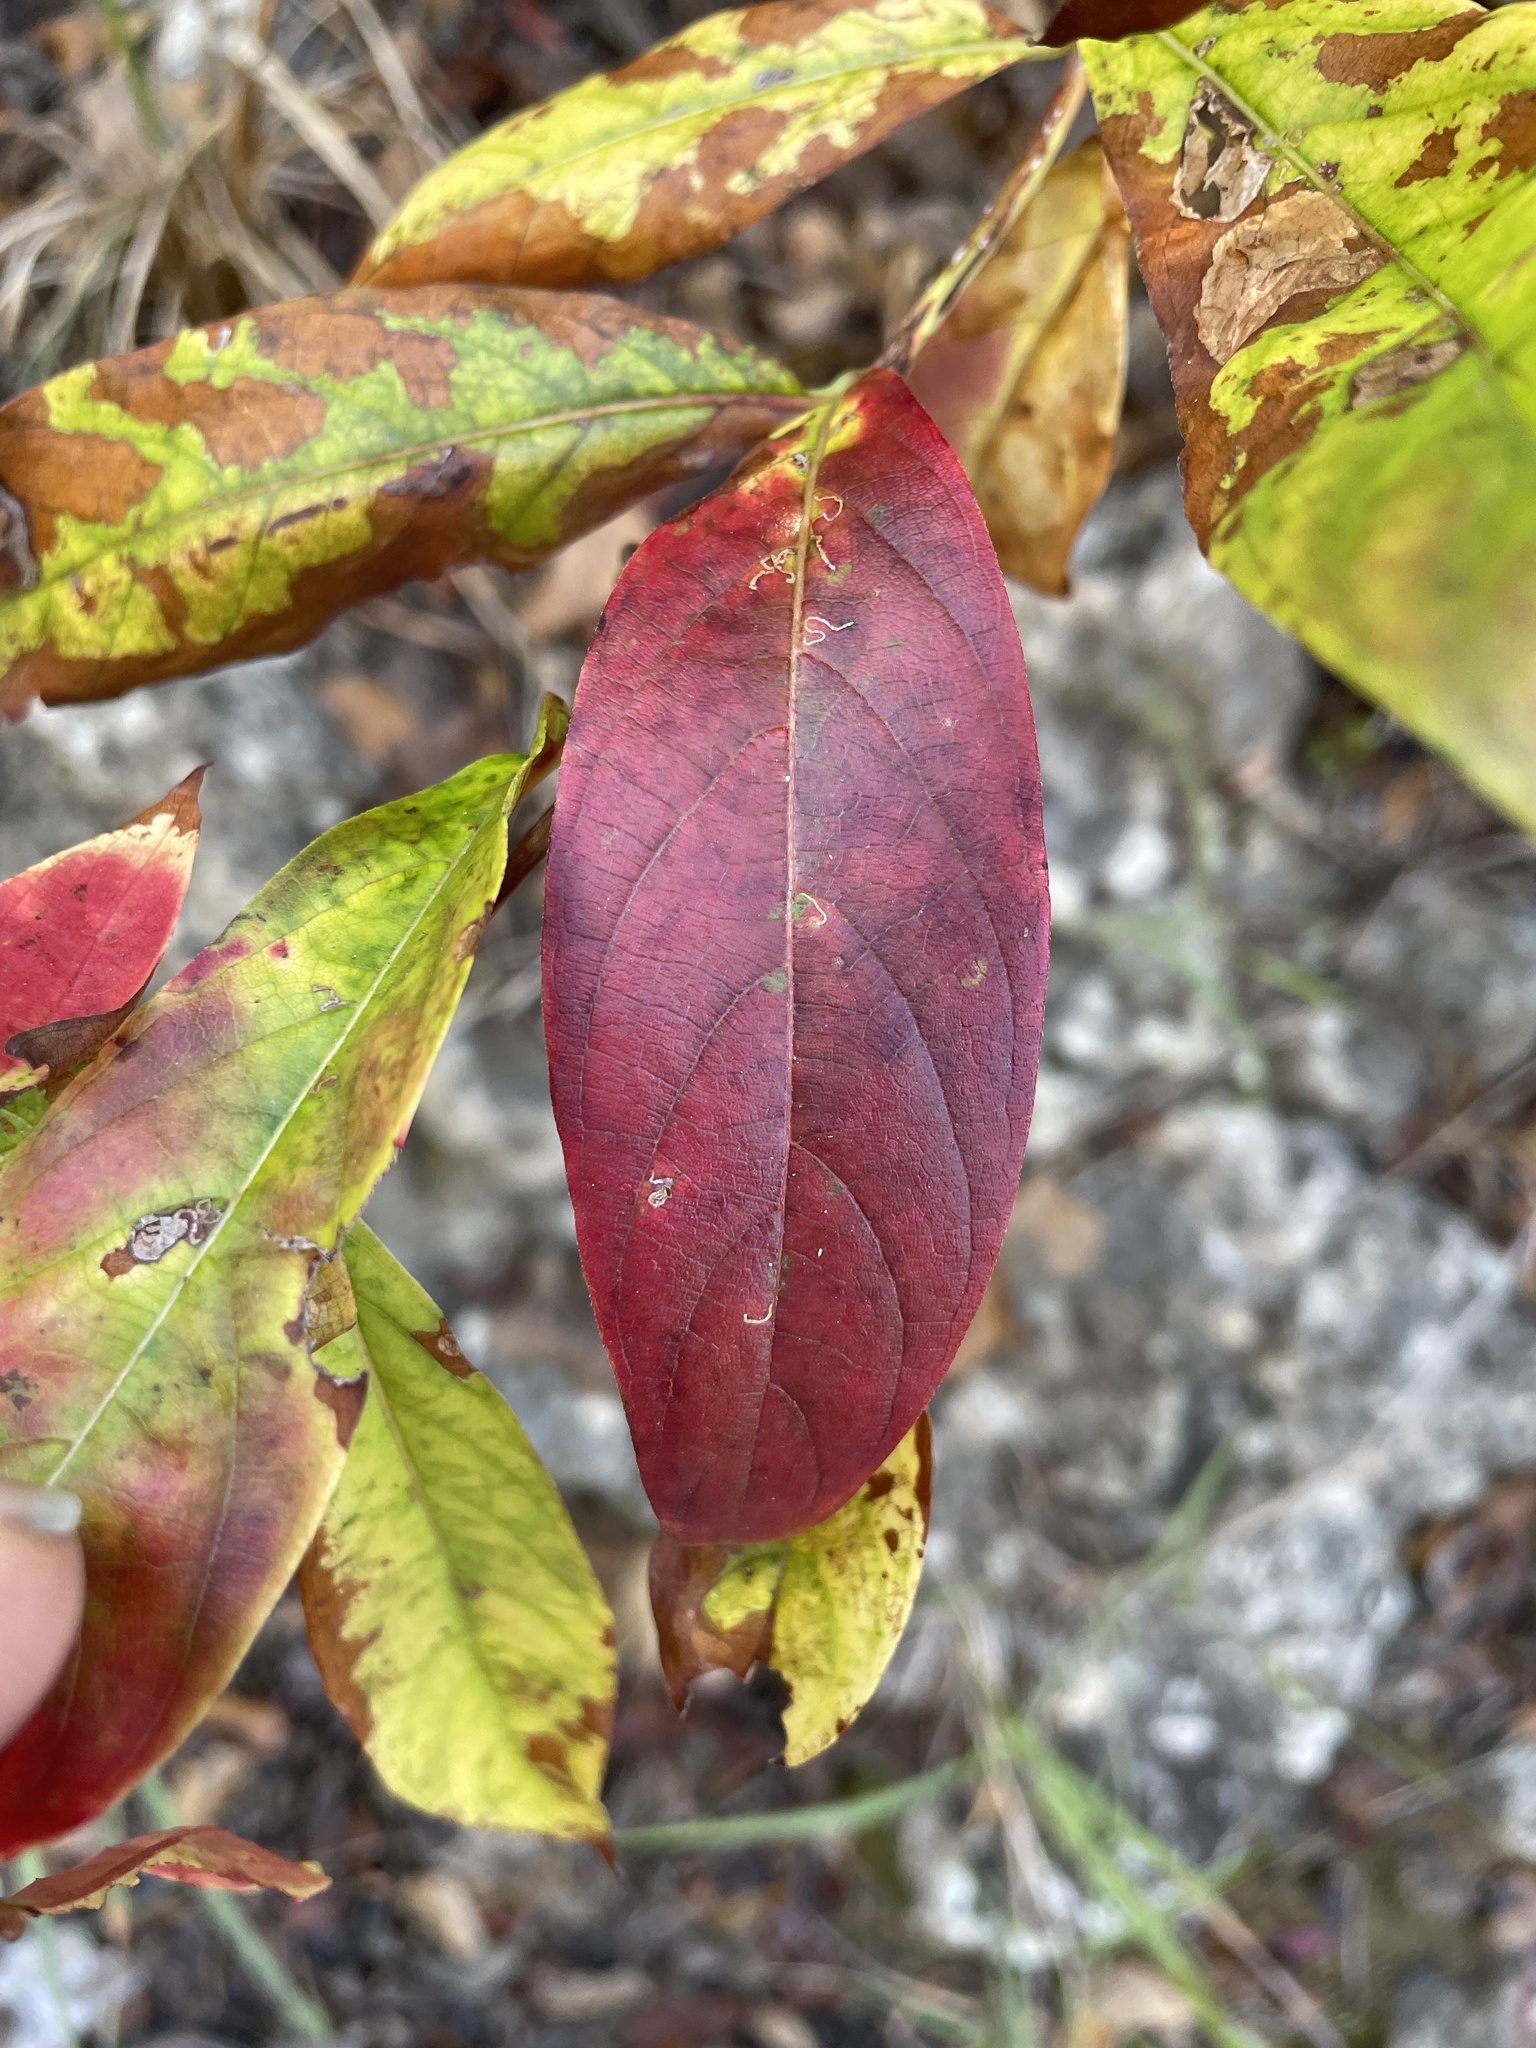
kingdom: Plantae
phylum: Tracheophyta
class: Magnoliopsida
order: Gentianales
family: Rubiaceae
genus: Cephalanthus
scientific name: Cephalanthus occidentalis
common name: Button-willow
